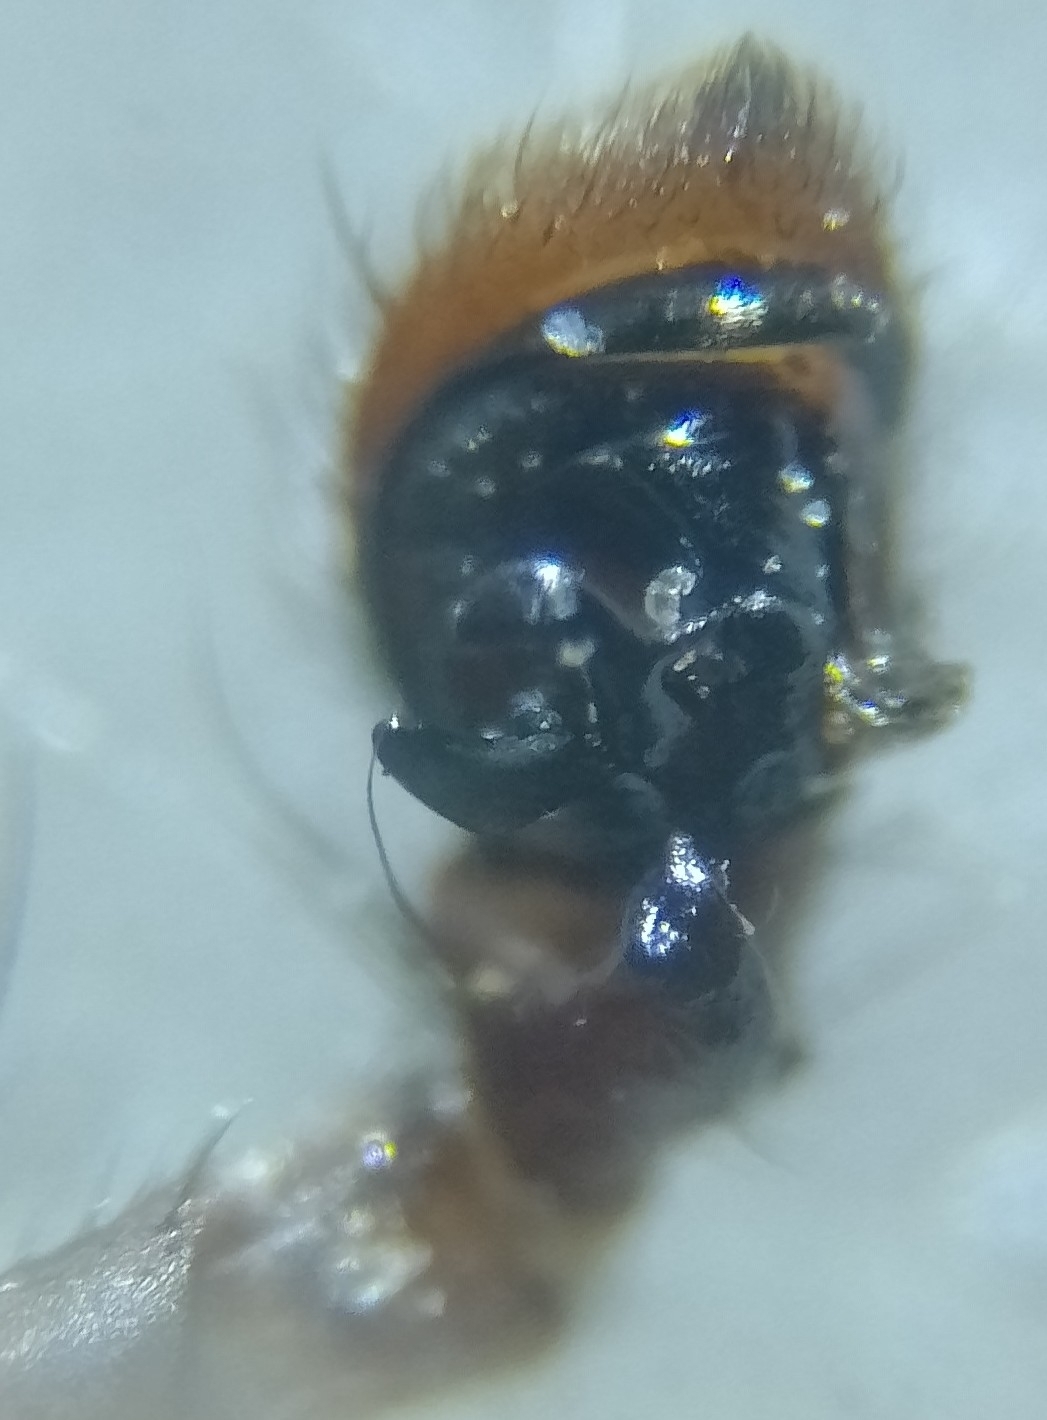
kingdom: Animalia
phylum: Arthropoda
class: Arachnida
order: Araneae
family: Thomisidae
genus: Xysticus
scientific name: Xysticus kochi
